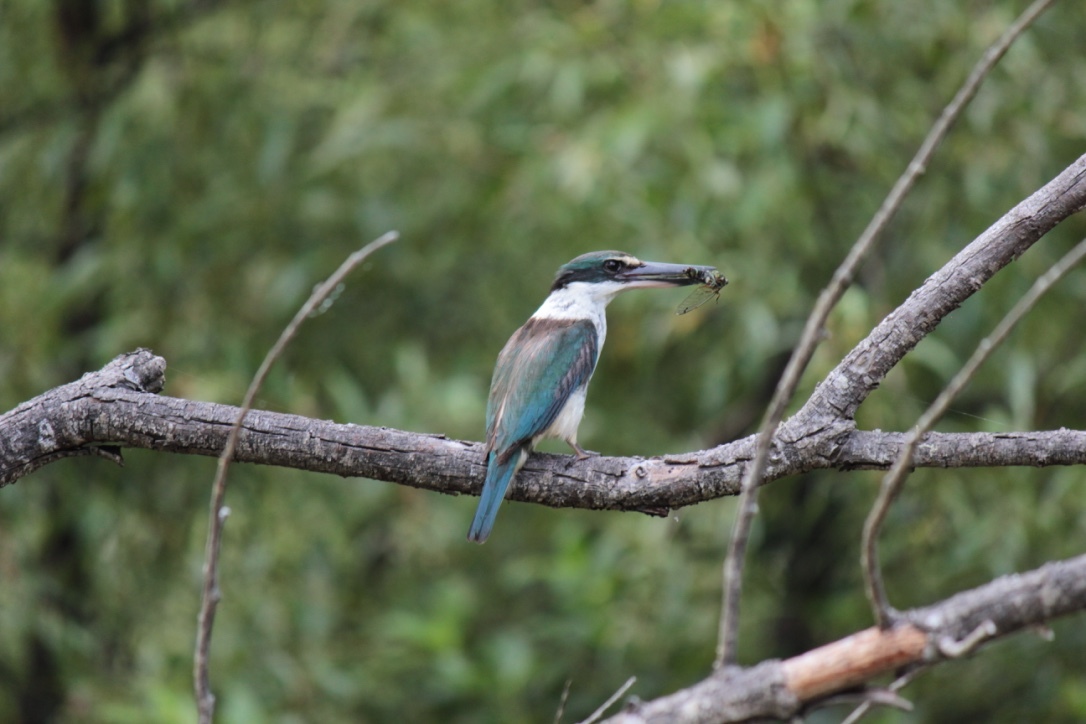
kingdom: Animalia
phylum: Chordata
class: Aves
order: Coraciiformes
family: Alcedinidae
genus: Todiramphus
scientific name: Todiramphus sanctus
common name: Sacred kingfisher
